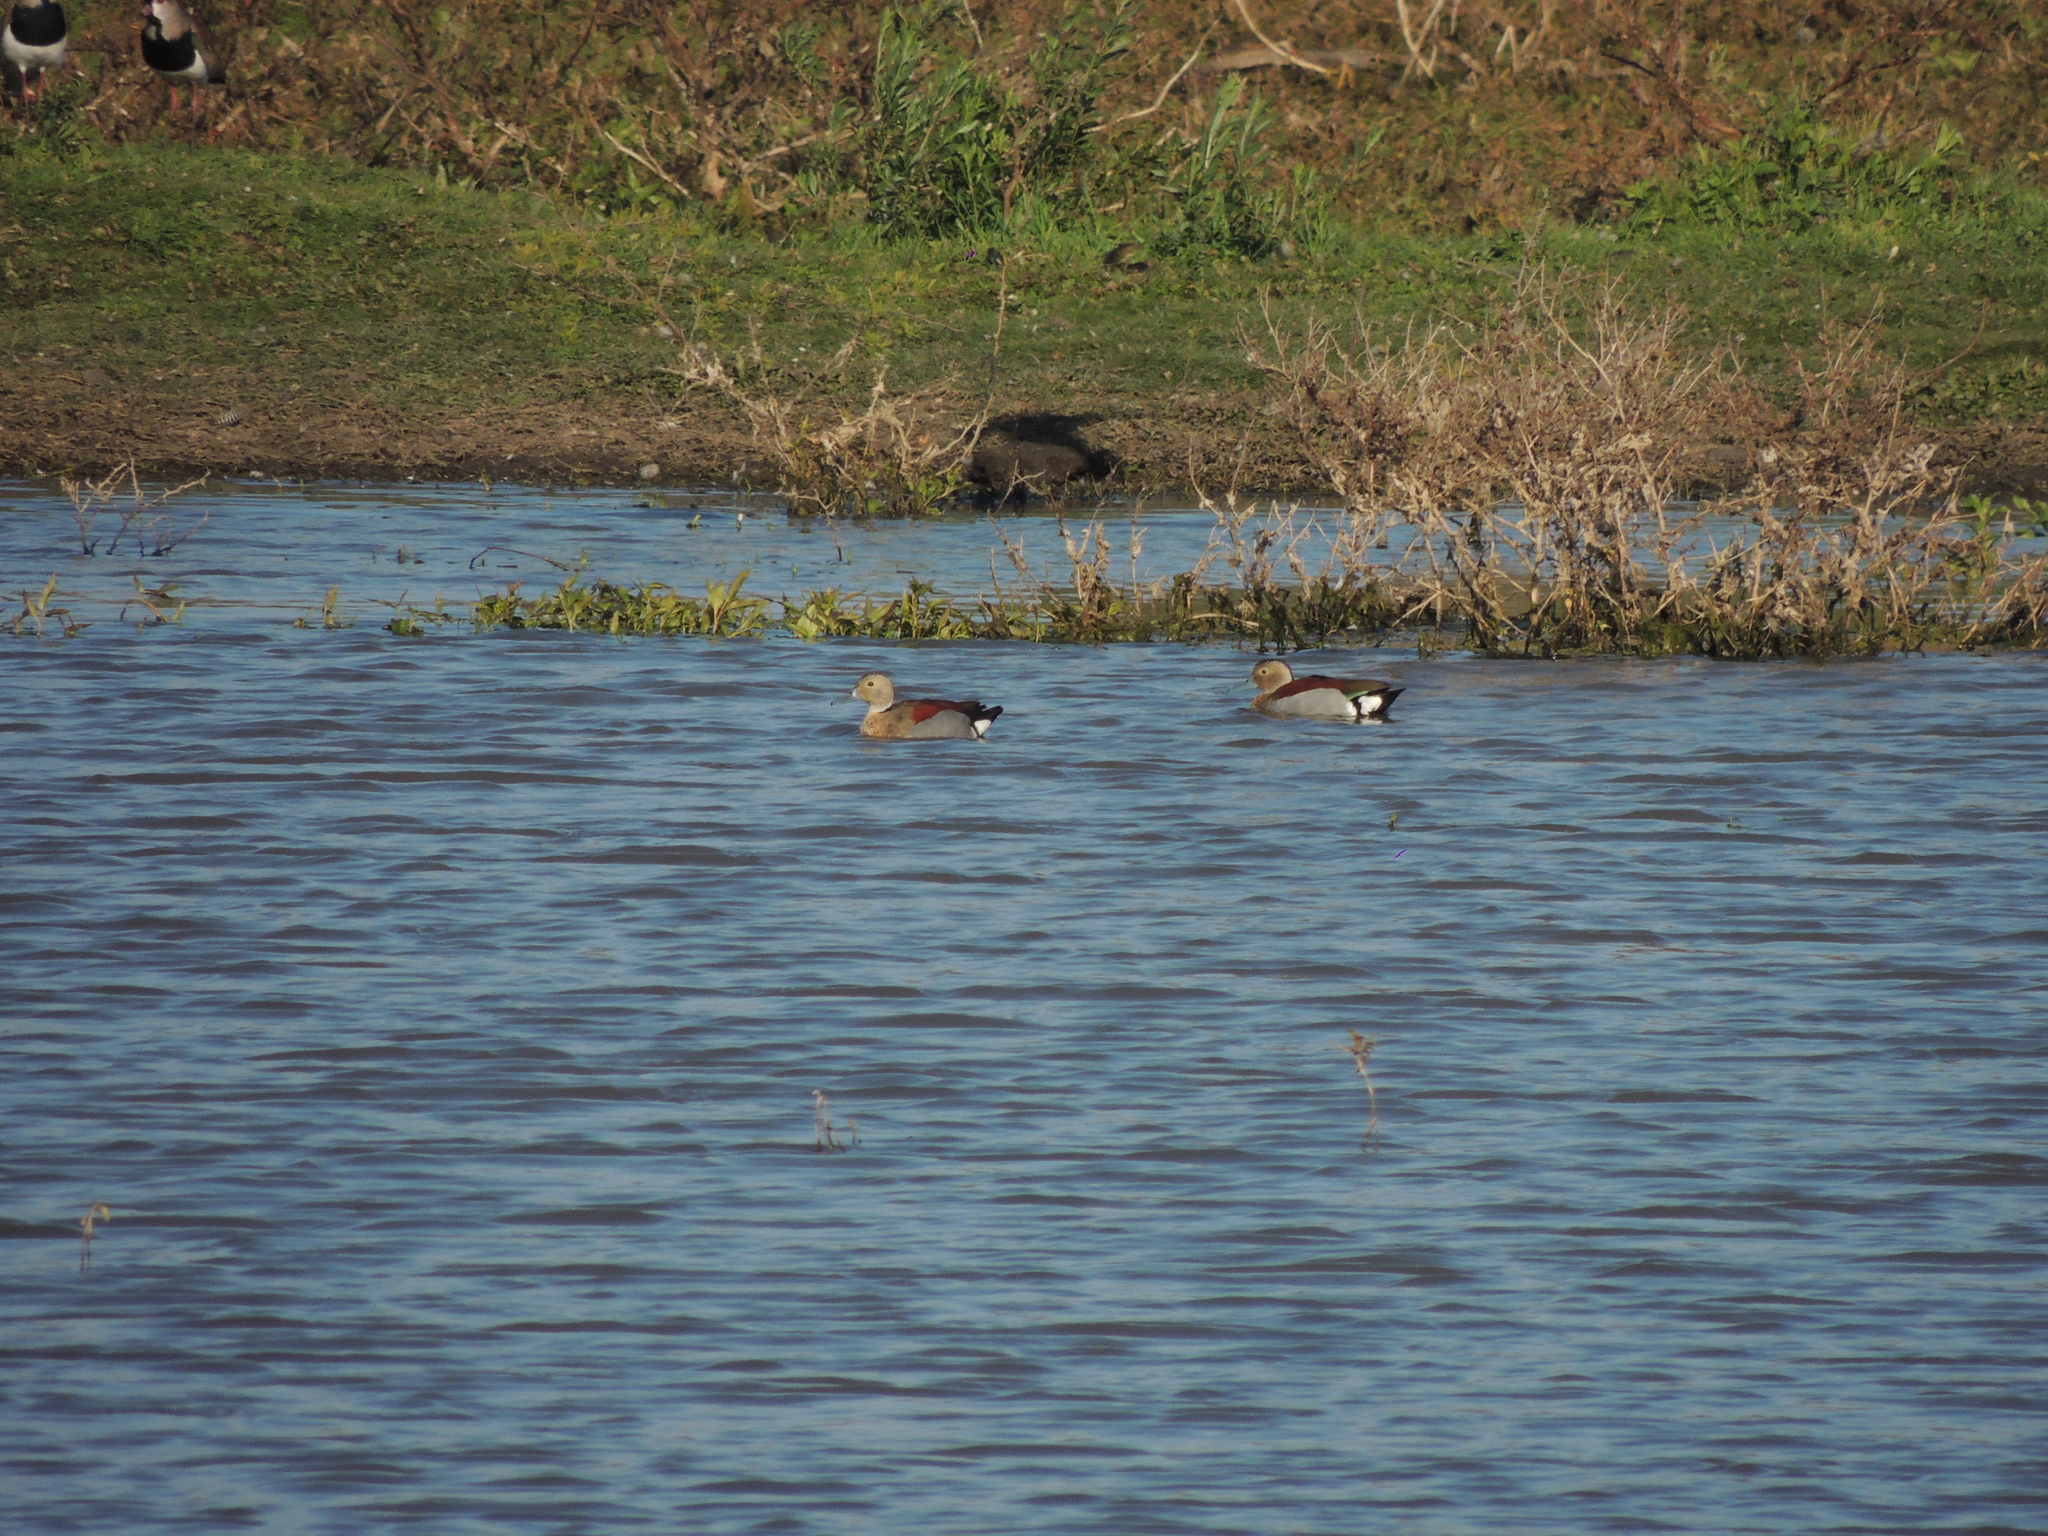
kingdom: Animalia
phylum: Chordata
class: Aves
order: Anseriformes
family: Anatidae
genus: Callonetta
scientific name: Callonetta leucophrys
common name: Ringed teal
